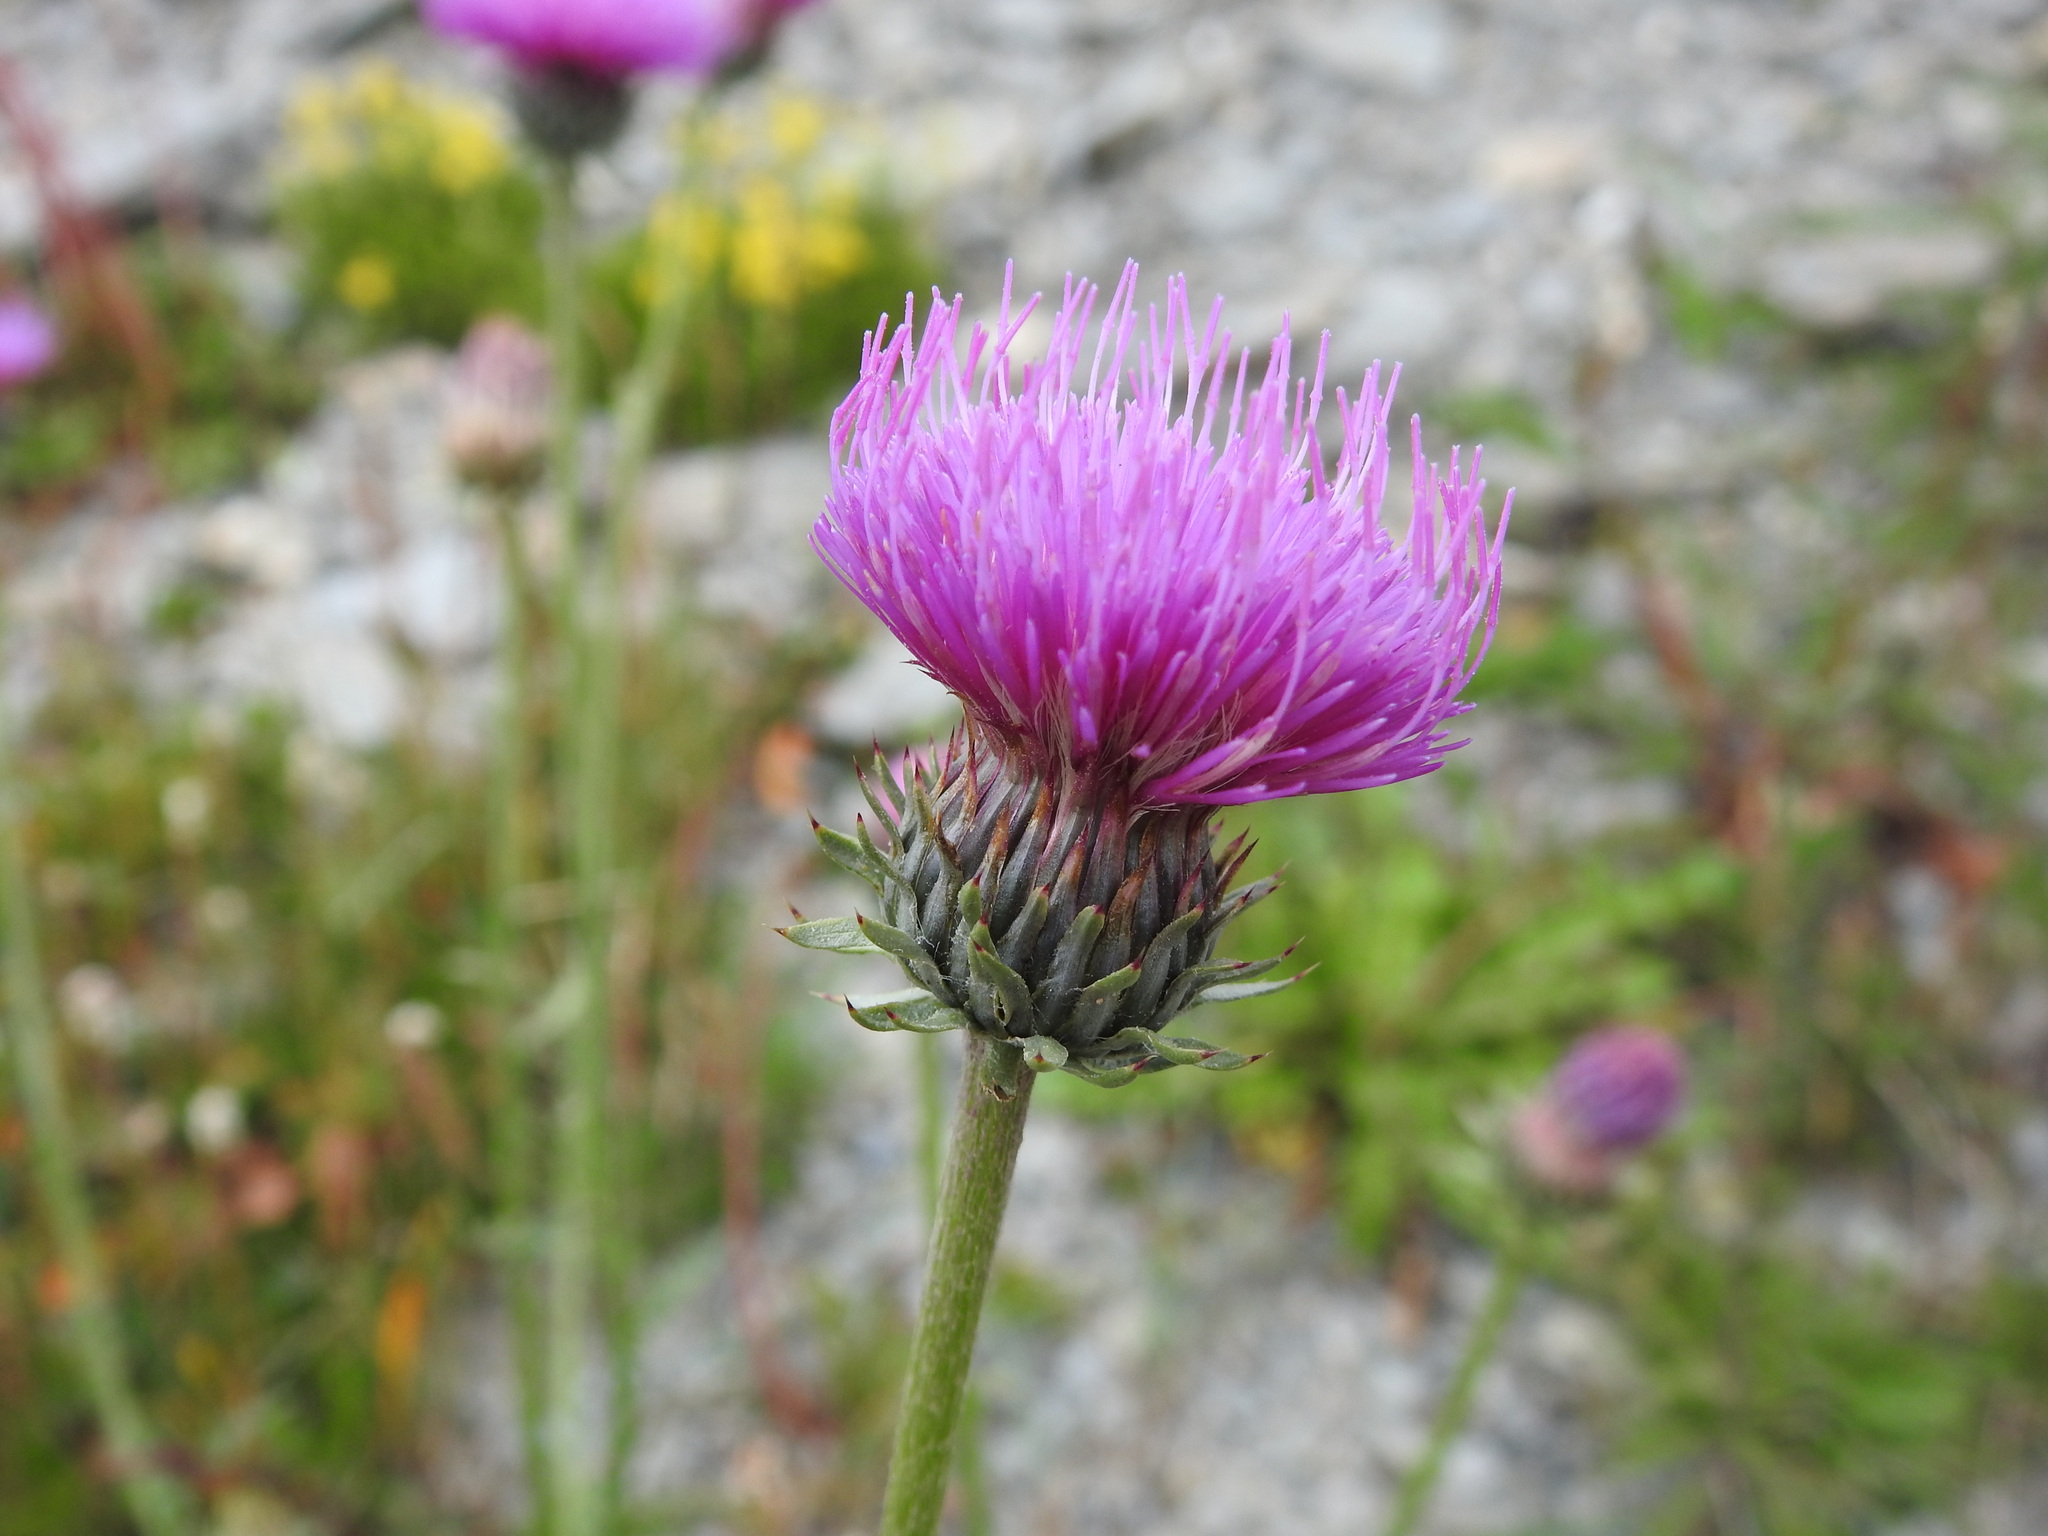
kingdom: Plantae
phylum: Tracheophyta
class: Magnoliopsida
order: Asterales
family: Asteraceae
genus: Carduus
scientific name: Carduus defloratus
